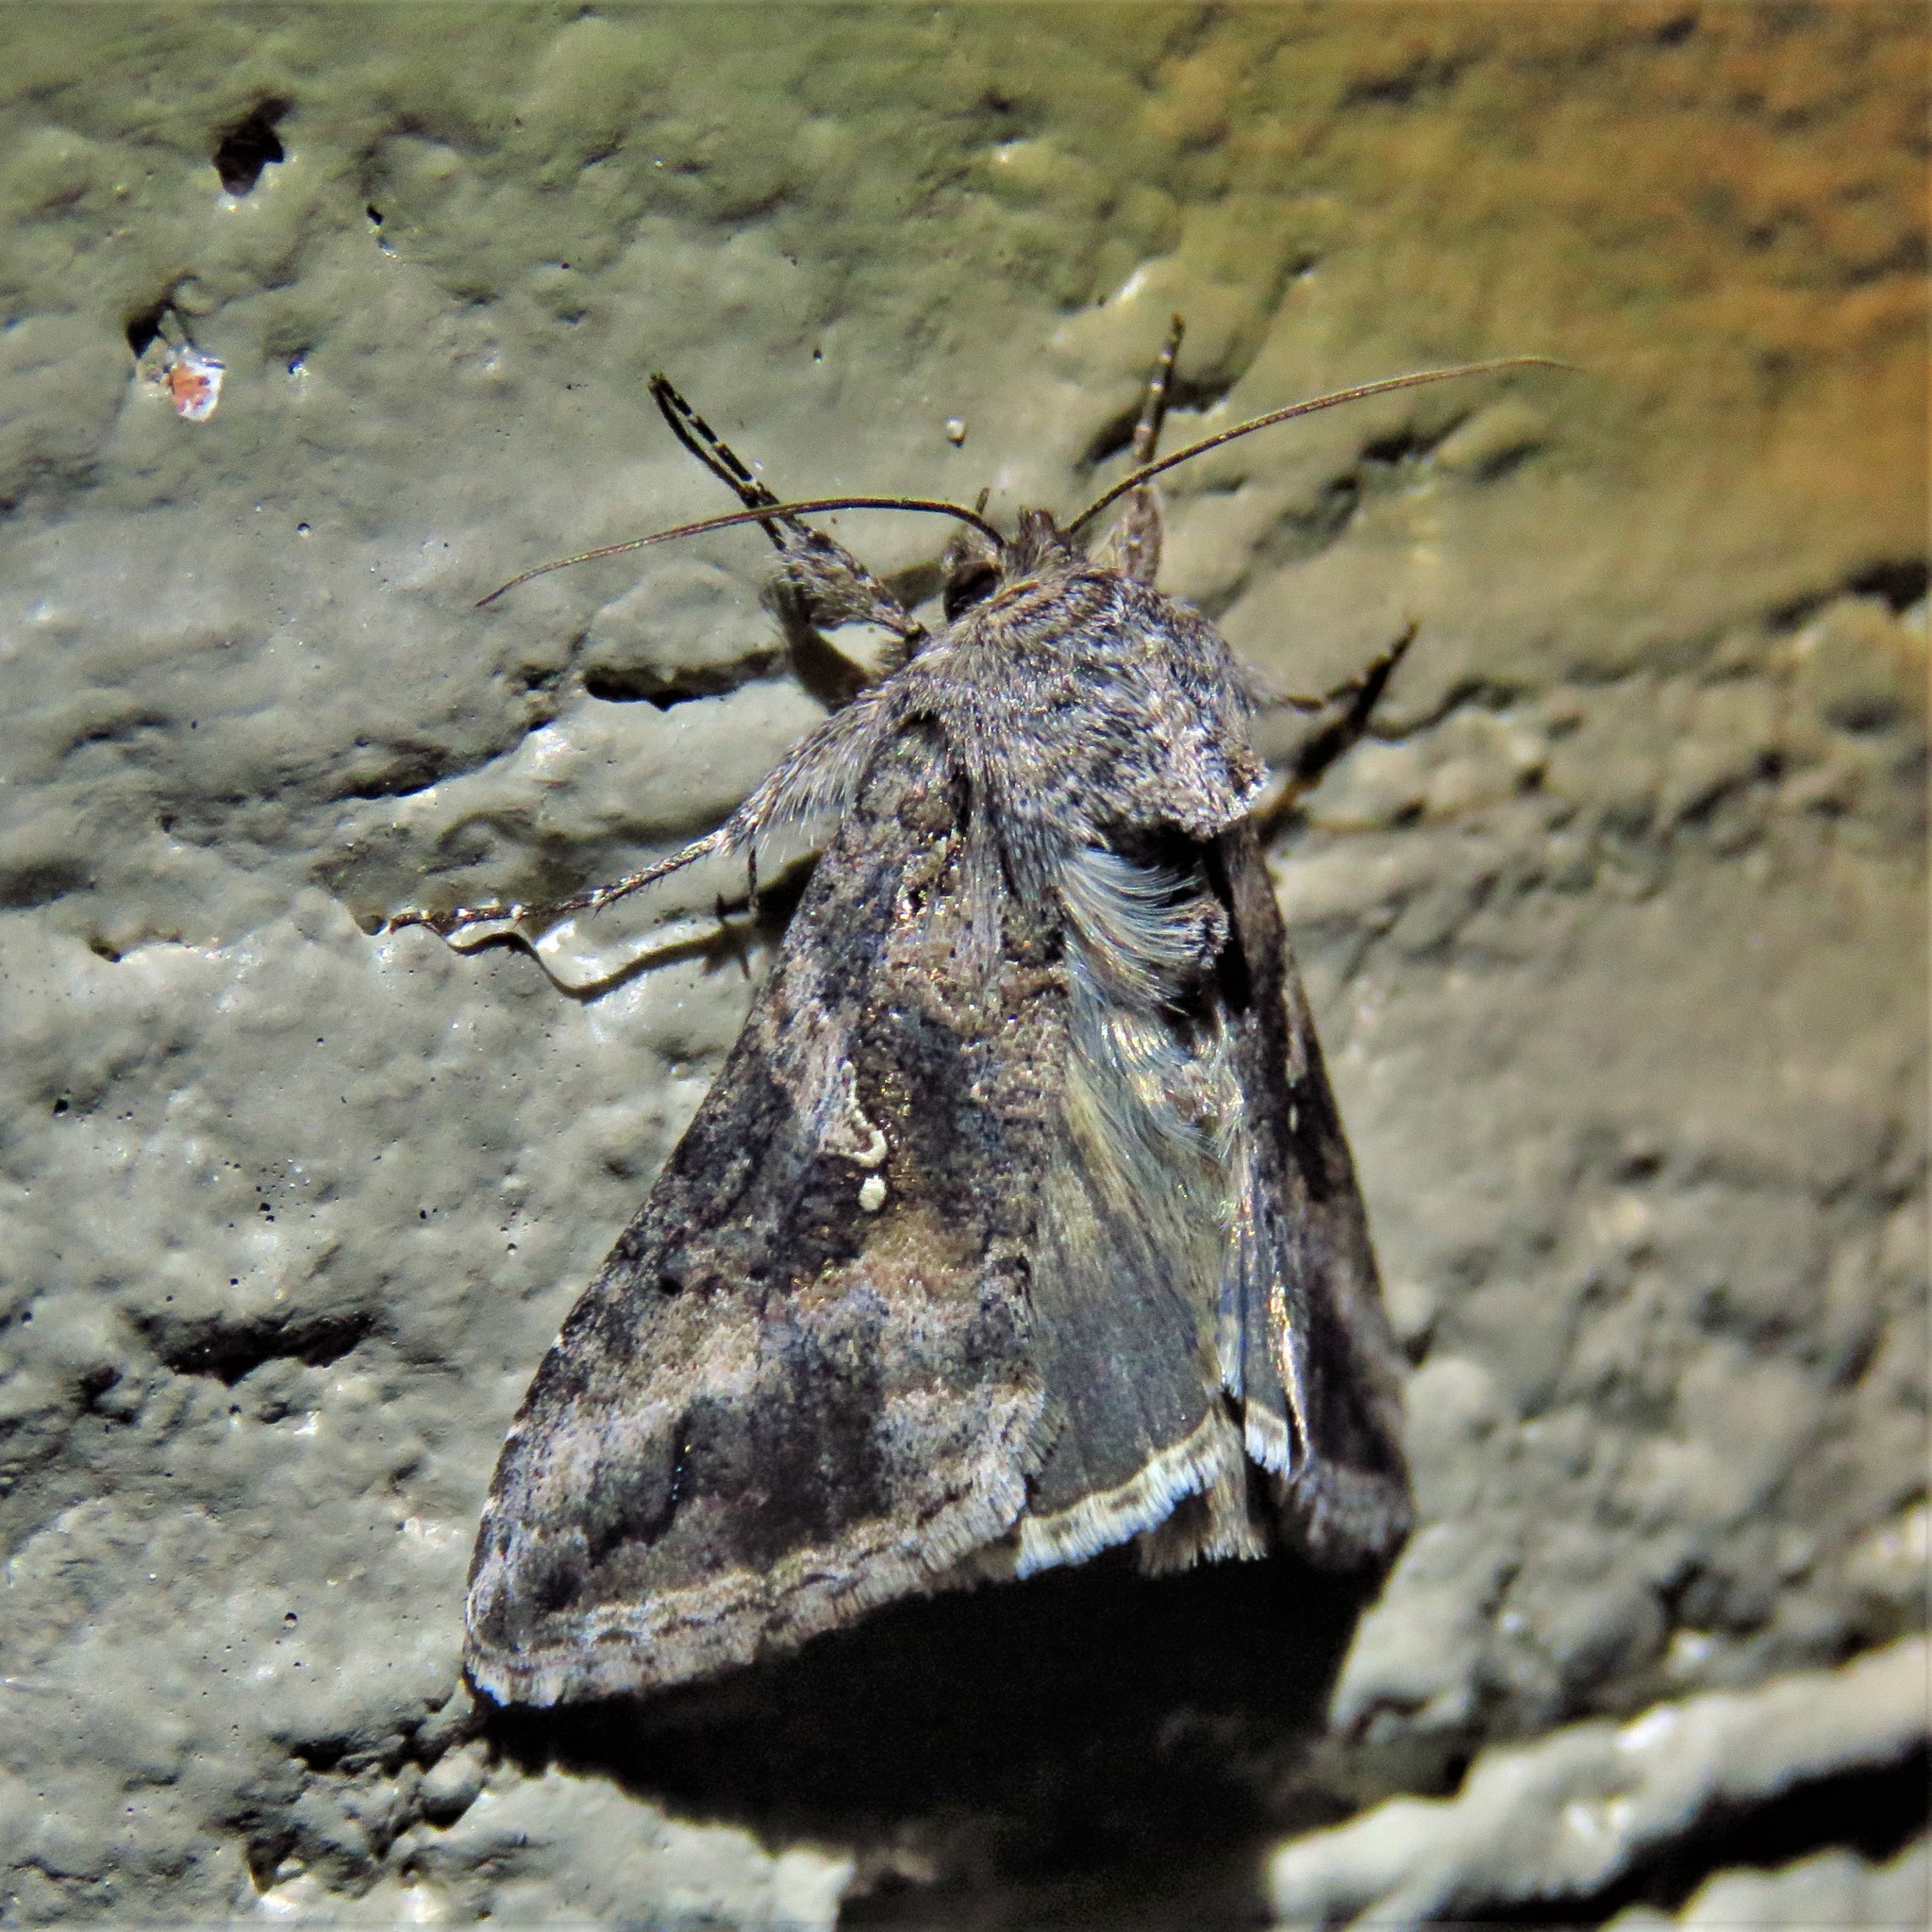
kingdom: Animalia
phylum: Arthropoda
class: Insecta
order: Lepidoptera
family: Noctuidae
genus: Rachiplusia
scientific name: Rachiplusia ou
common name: Gray looper moth
